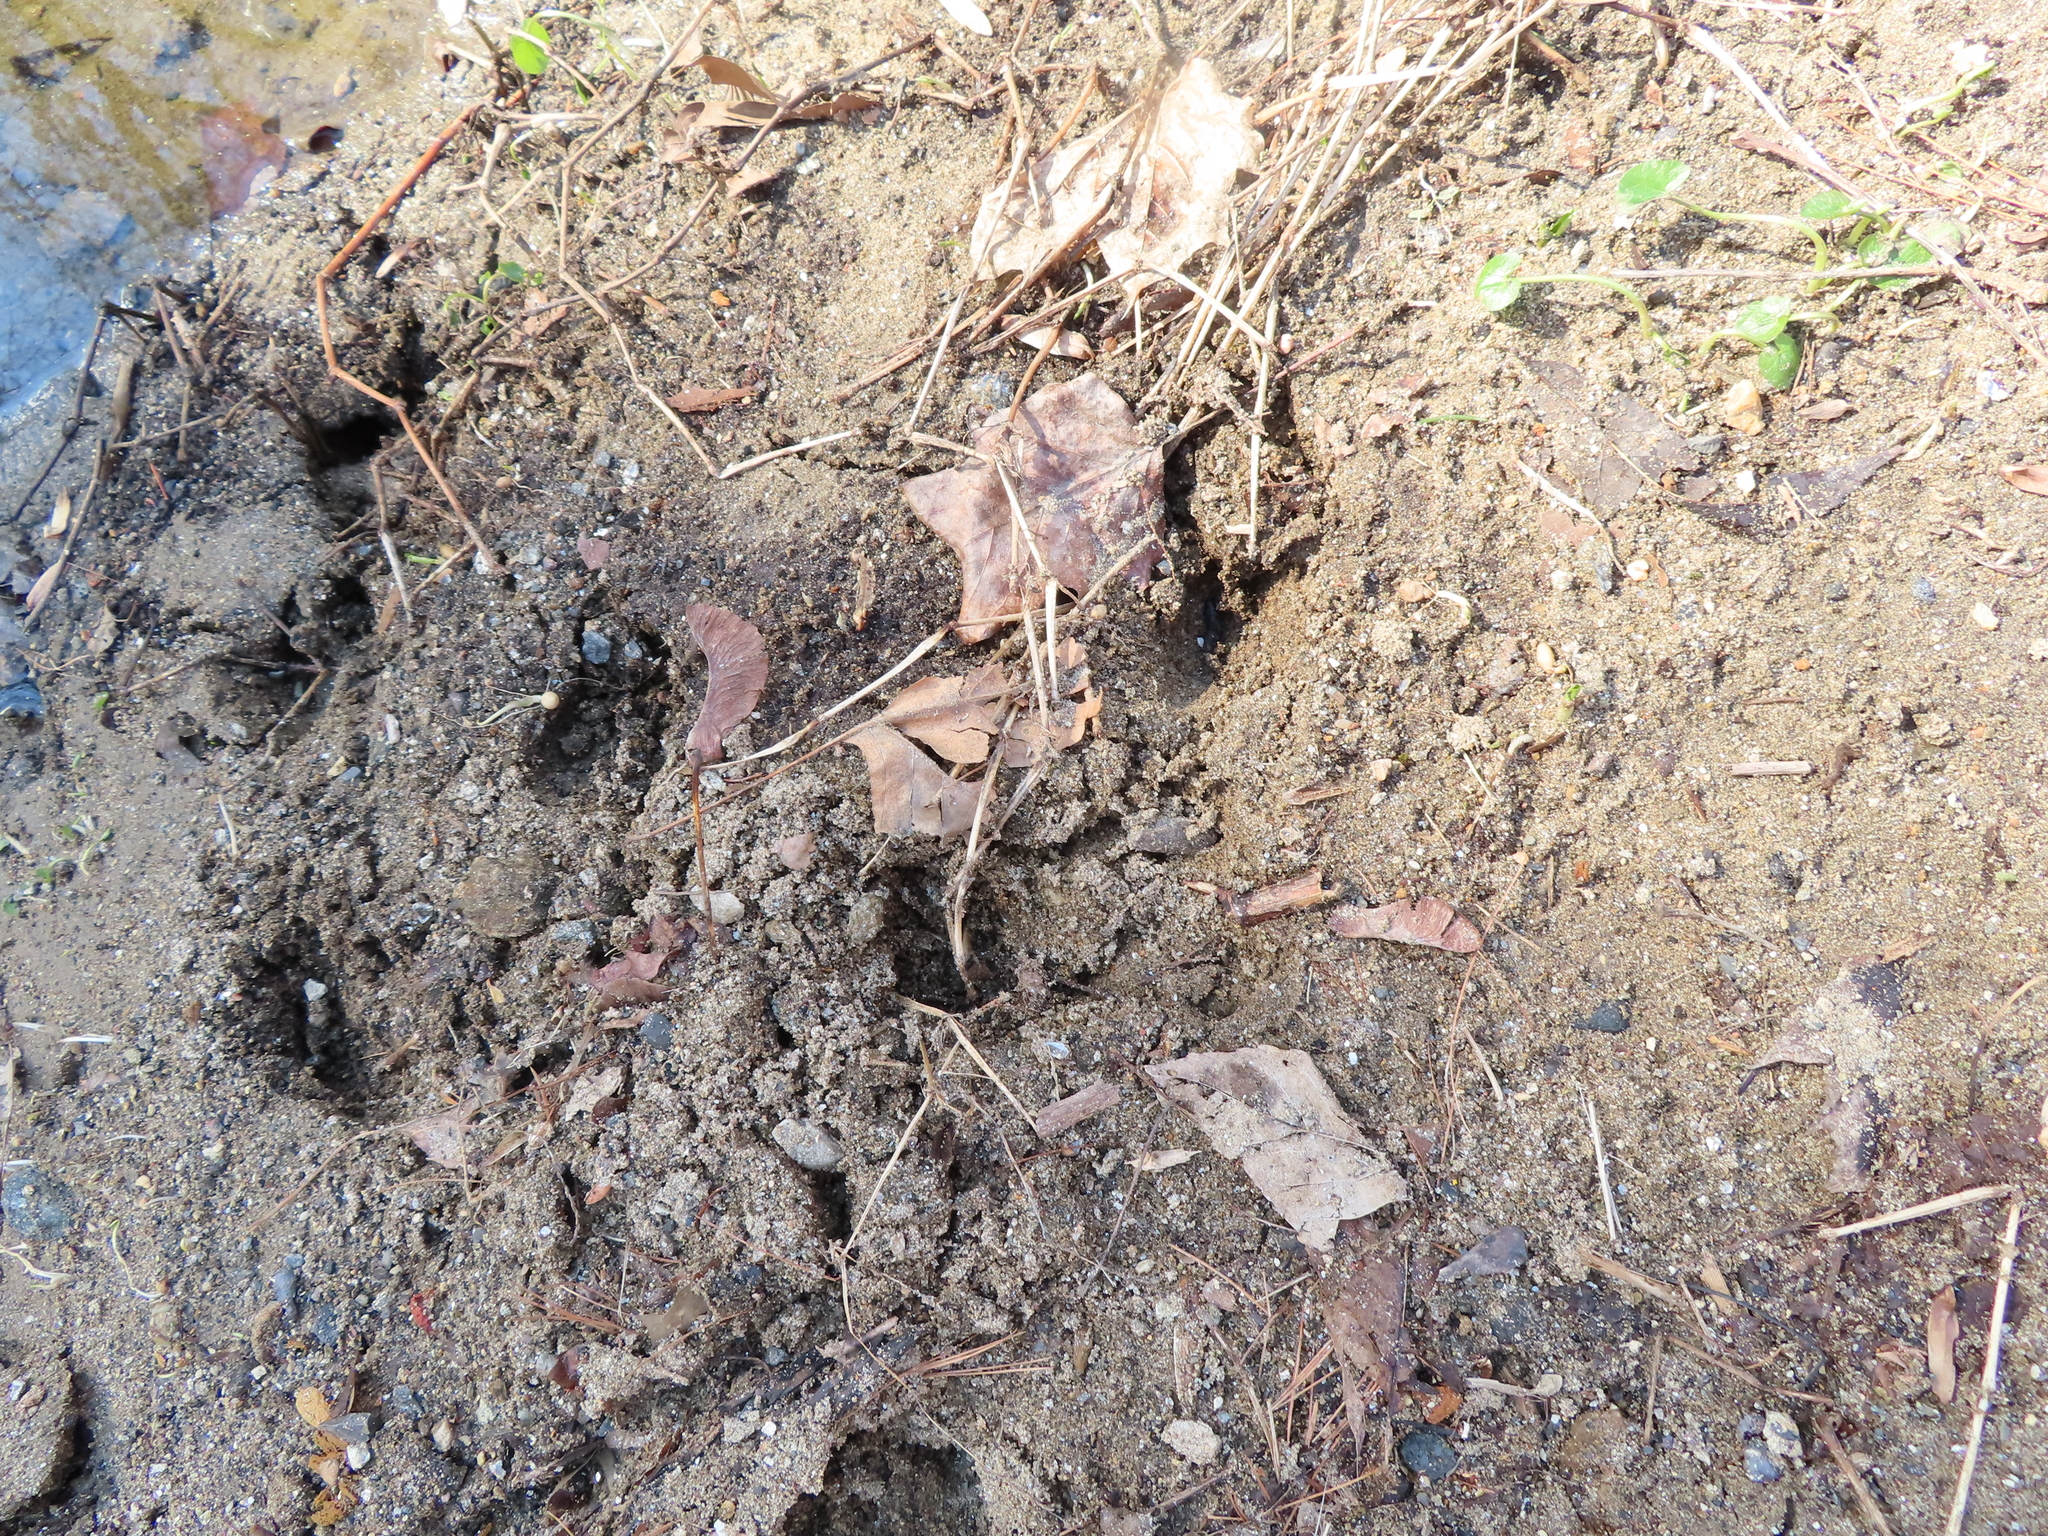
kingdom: Animalia
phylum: Chordata
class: Mammalia
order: Artiodactyla
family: Cervidae
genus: Odocoileus
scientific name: Odocoileus virginianus
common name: White-tailed deer
